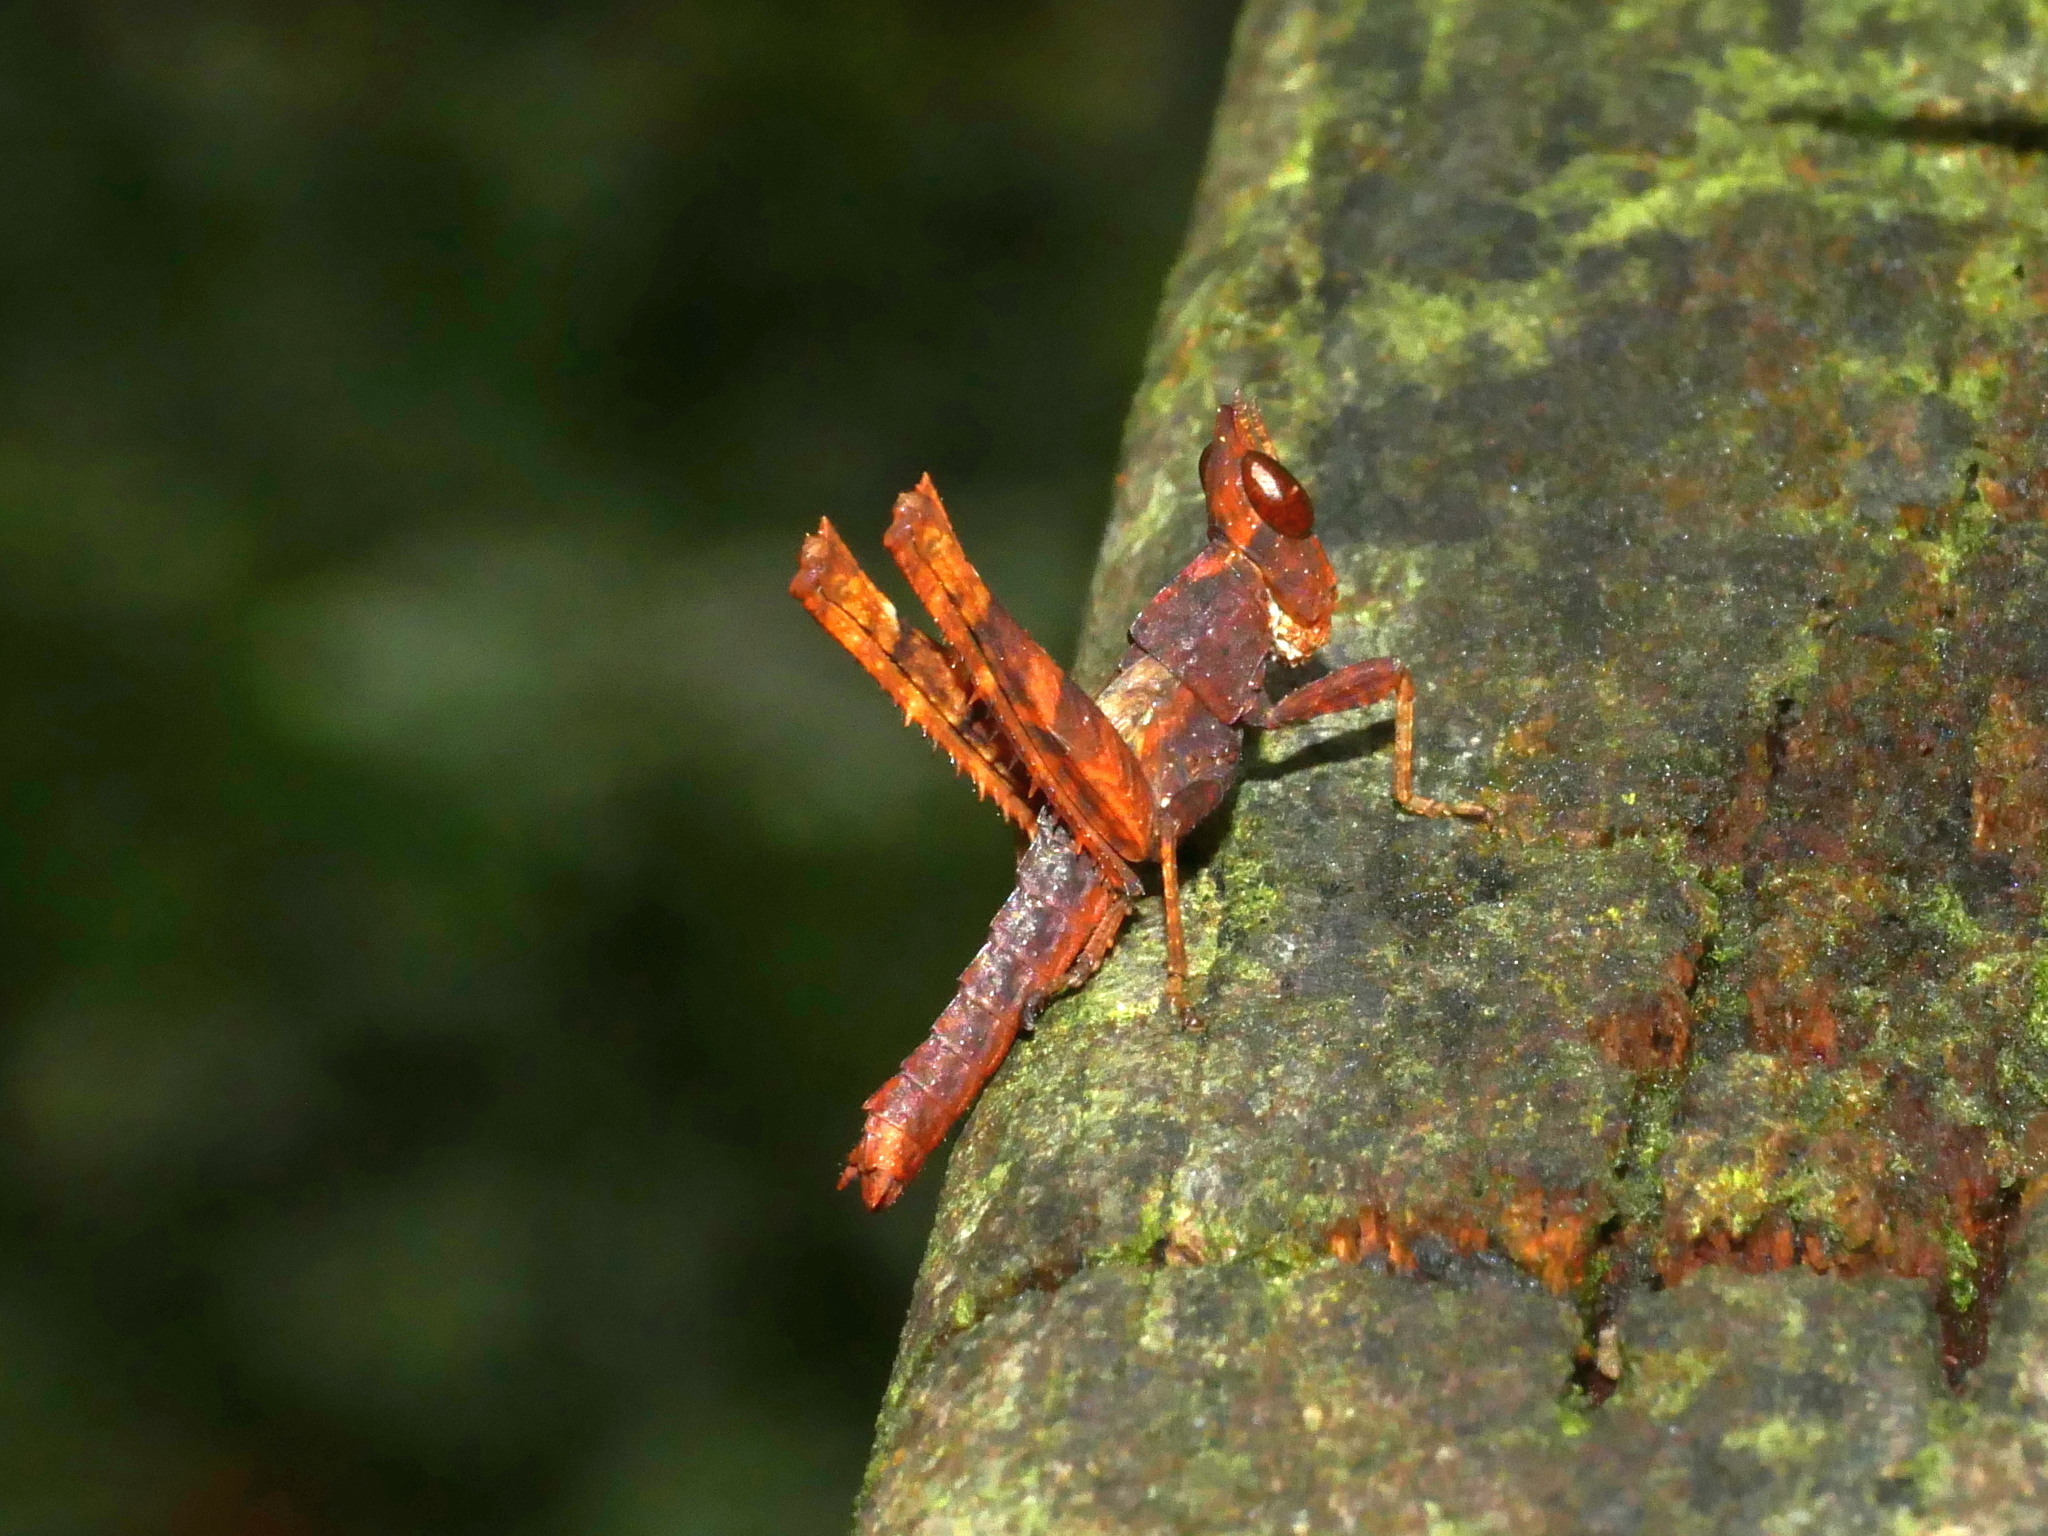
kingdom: Animalia
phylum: Arthropoda
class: Insecta
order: Orthoptera
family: Chorotypidae
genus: Erianthella
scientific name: Erianthella formosana
